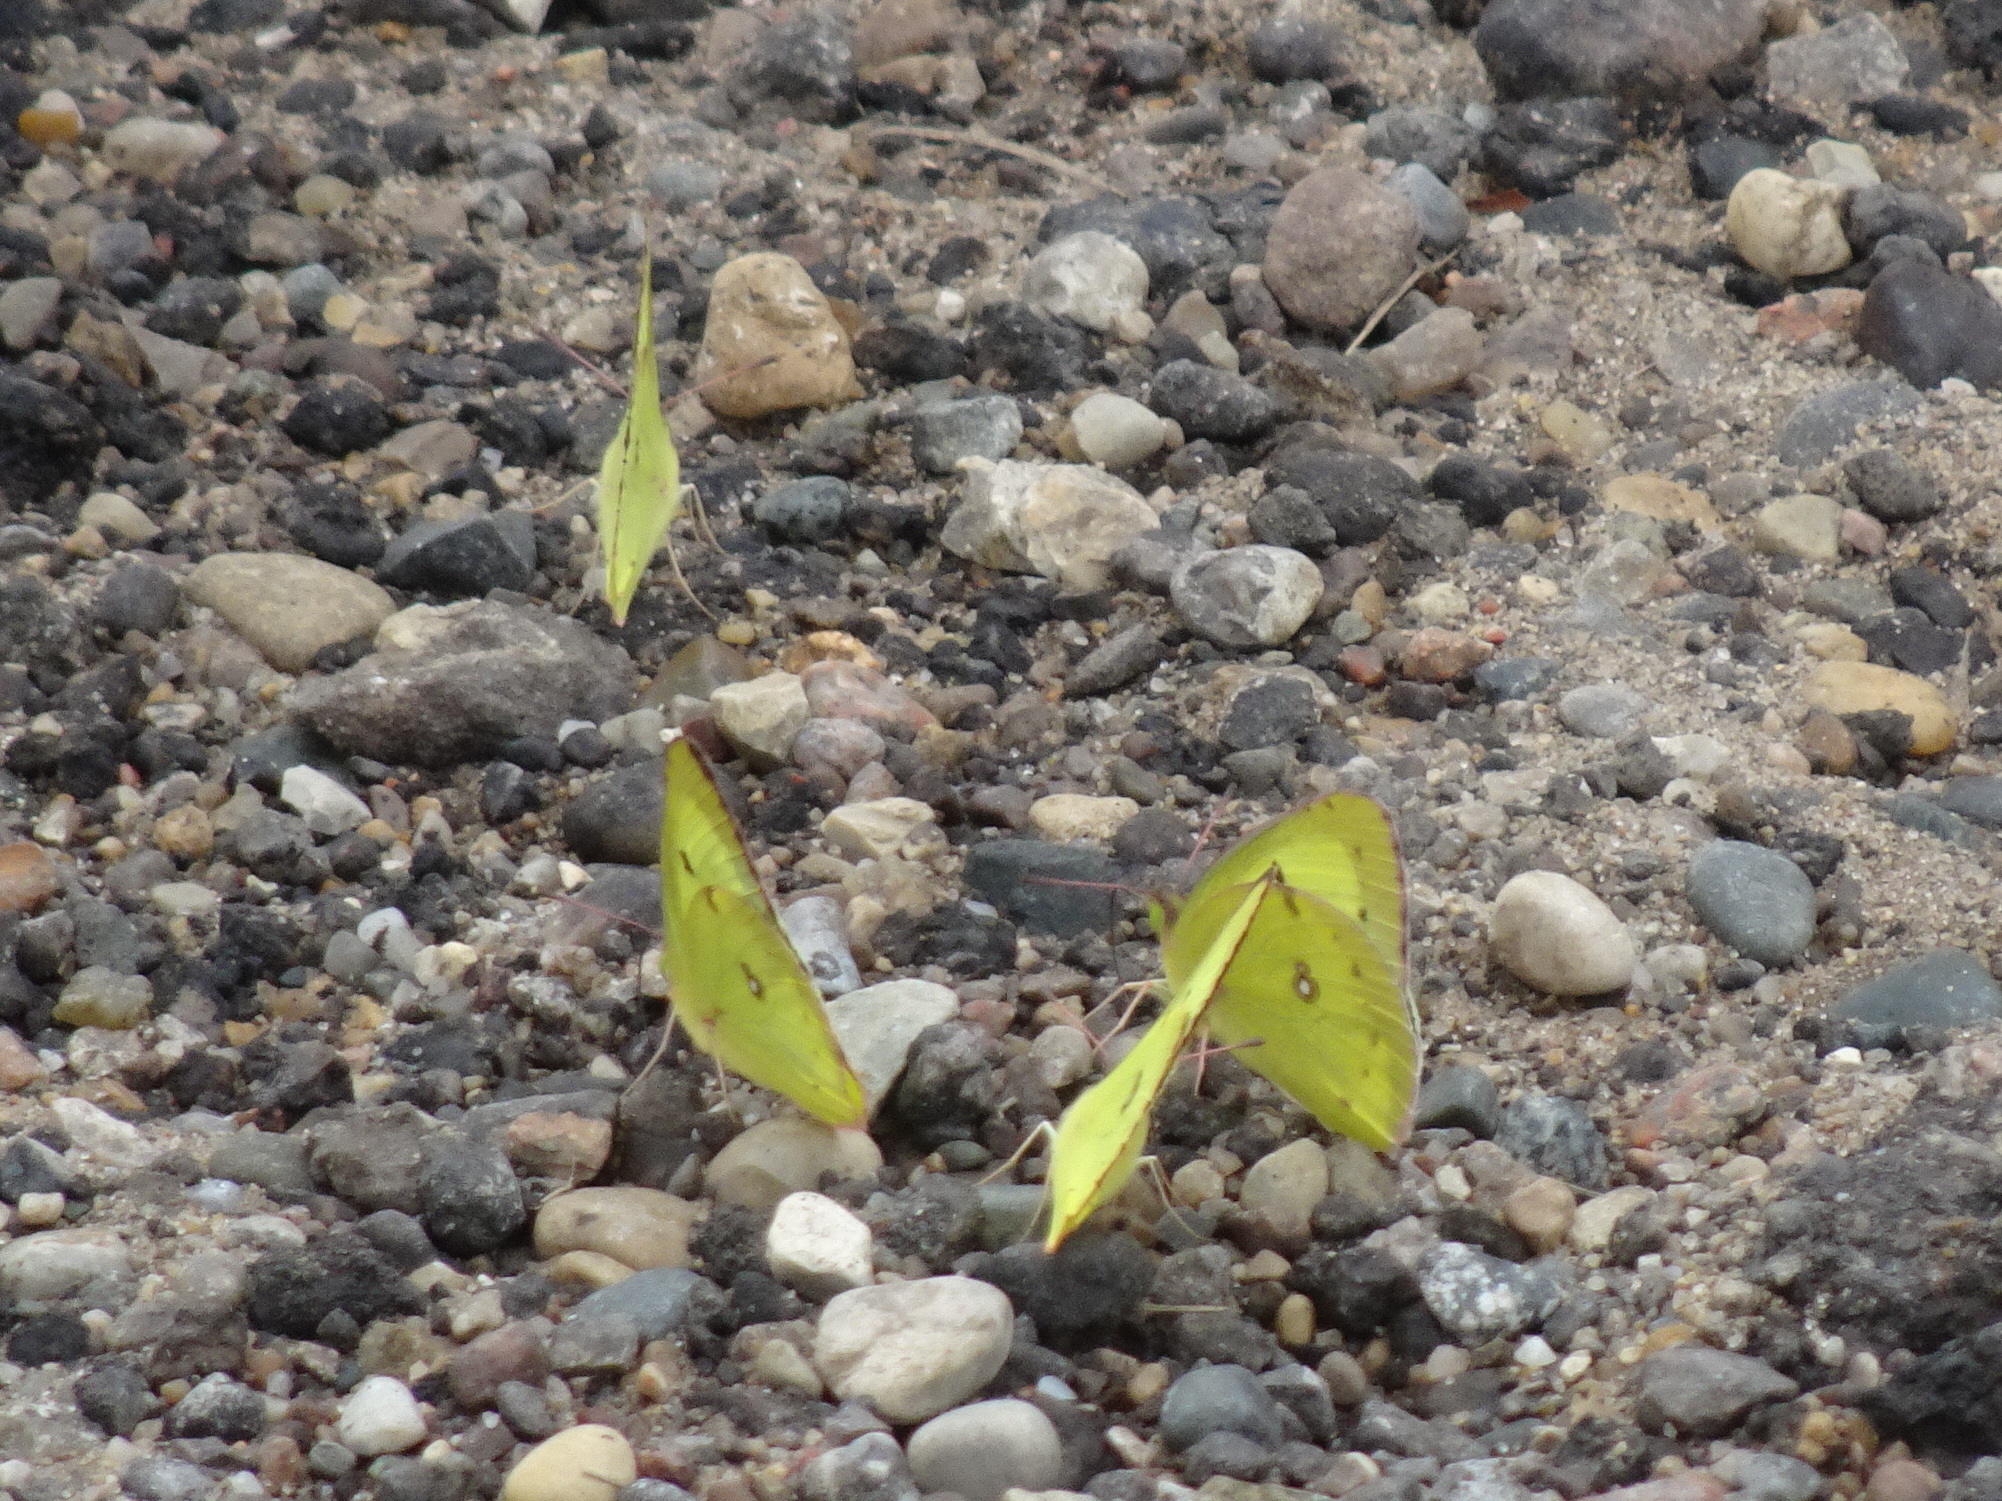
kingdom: Animalia
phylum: Arthropoda
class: Insecta
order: Lepidoptera
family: Pieridae
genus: Colias
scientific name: Colias philodice
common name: Clouded sulphur
